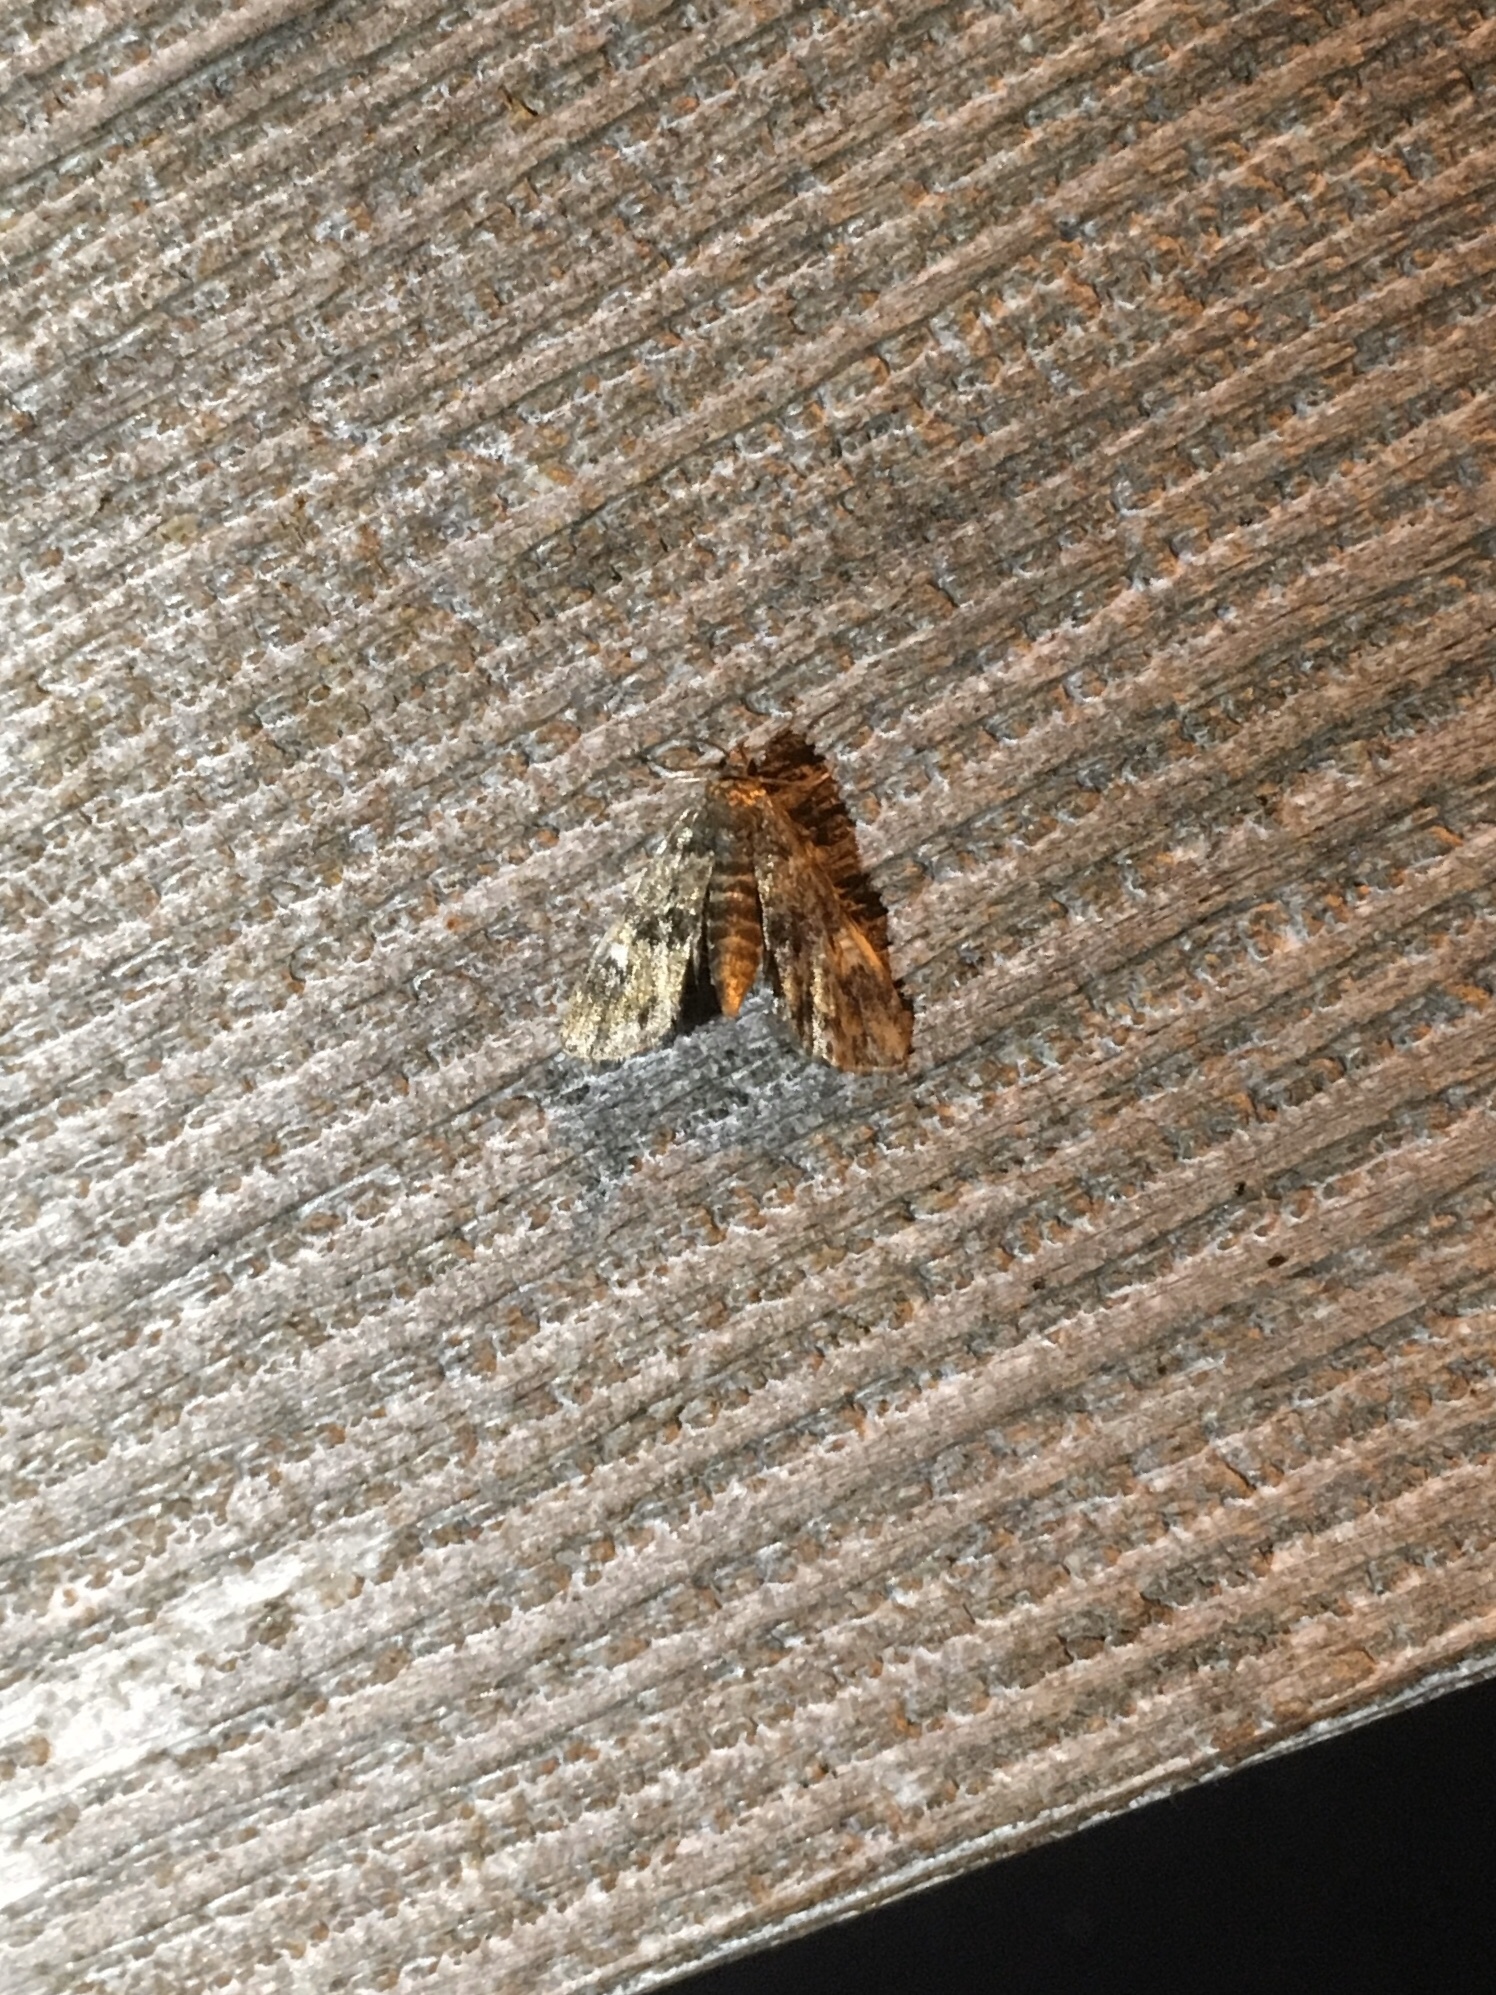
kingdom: Animalia
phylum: Arthropoda
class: Insecta
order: Lepidoptera
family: Crambidae
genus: Elophila
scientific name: Elophila obliteralis
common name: Waterlily leafcutter moth
